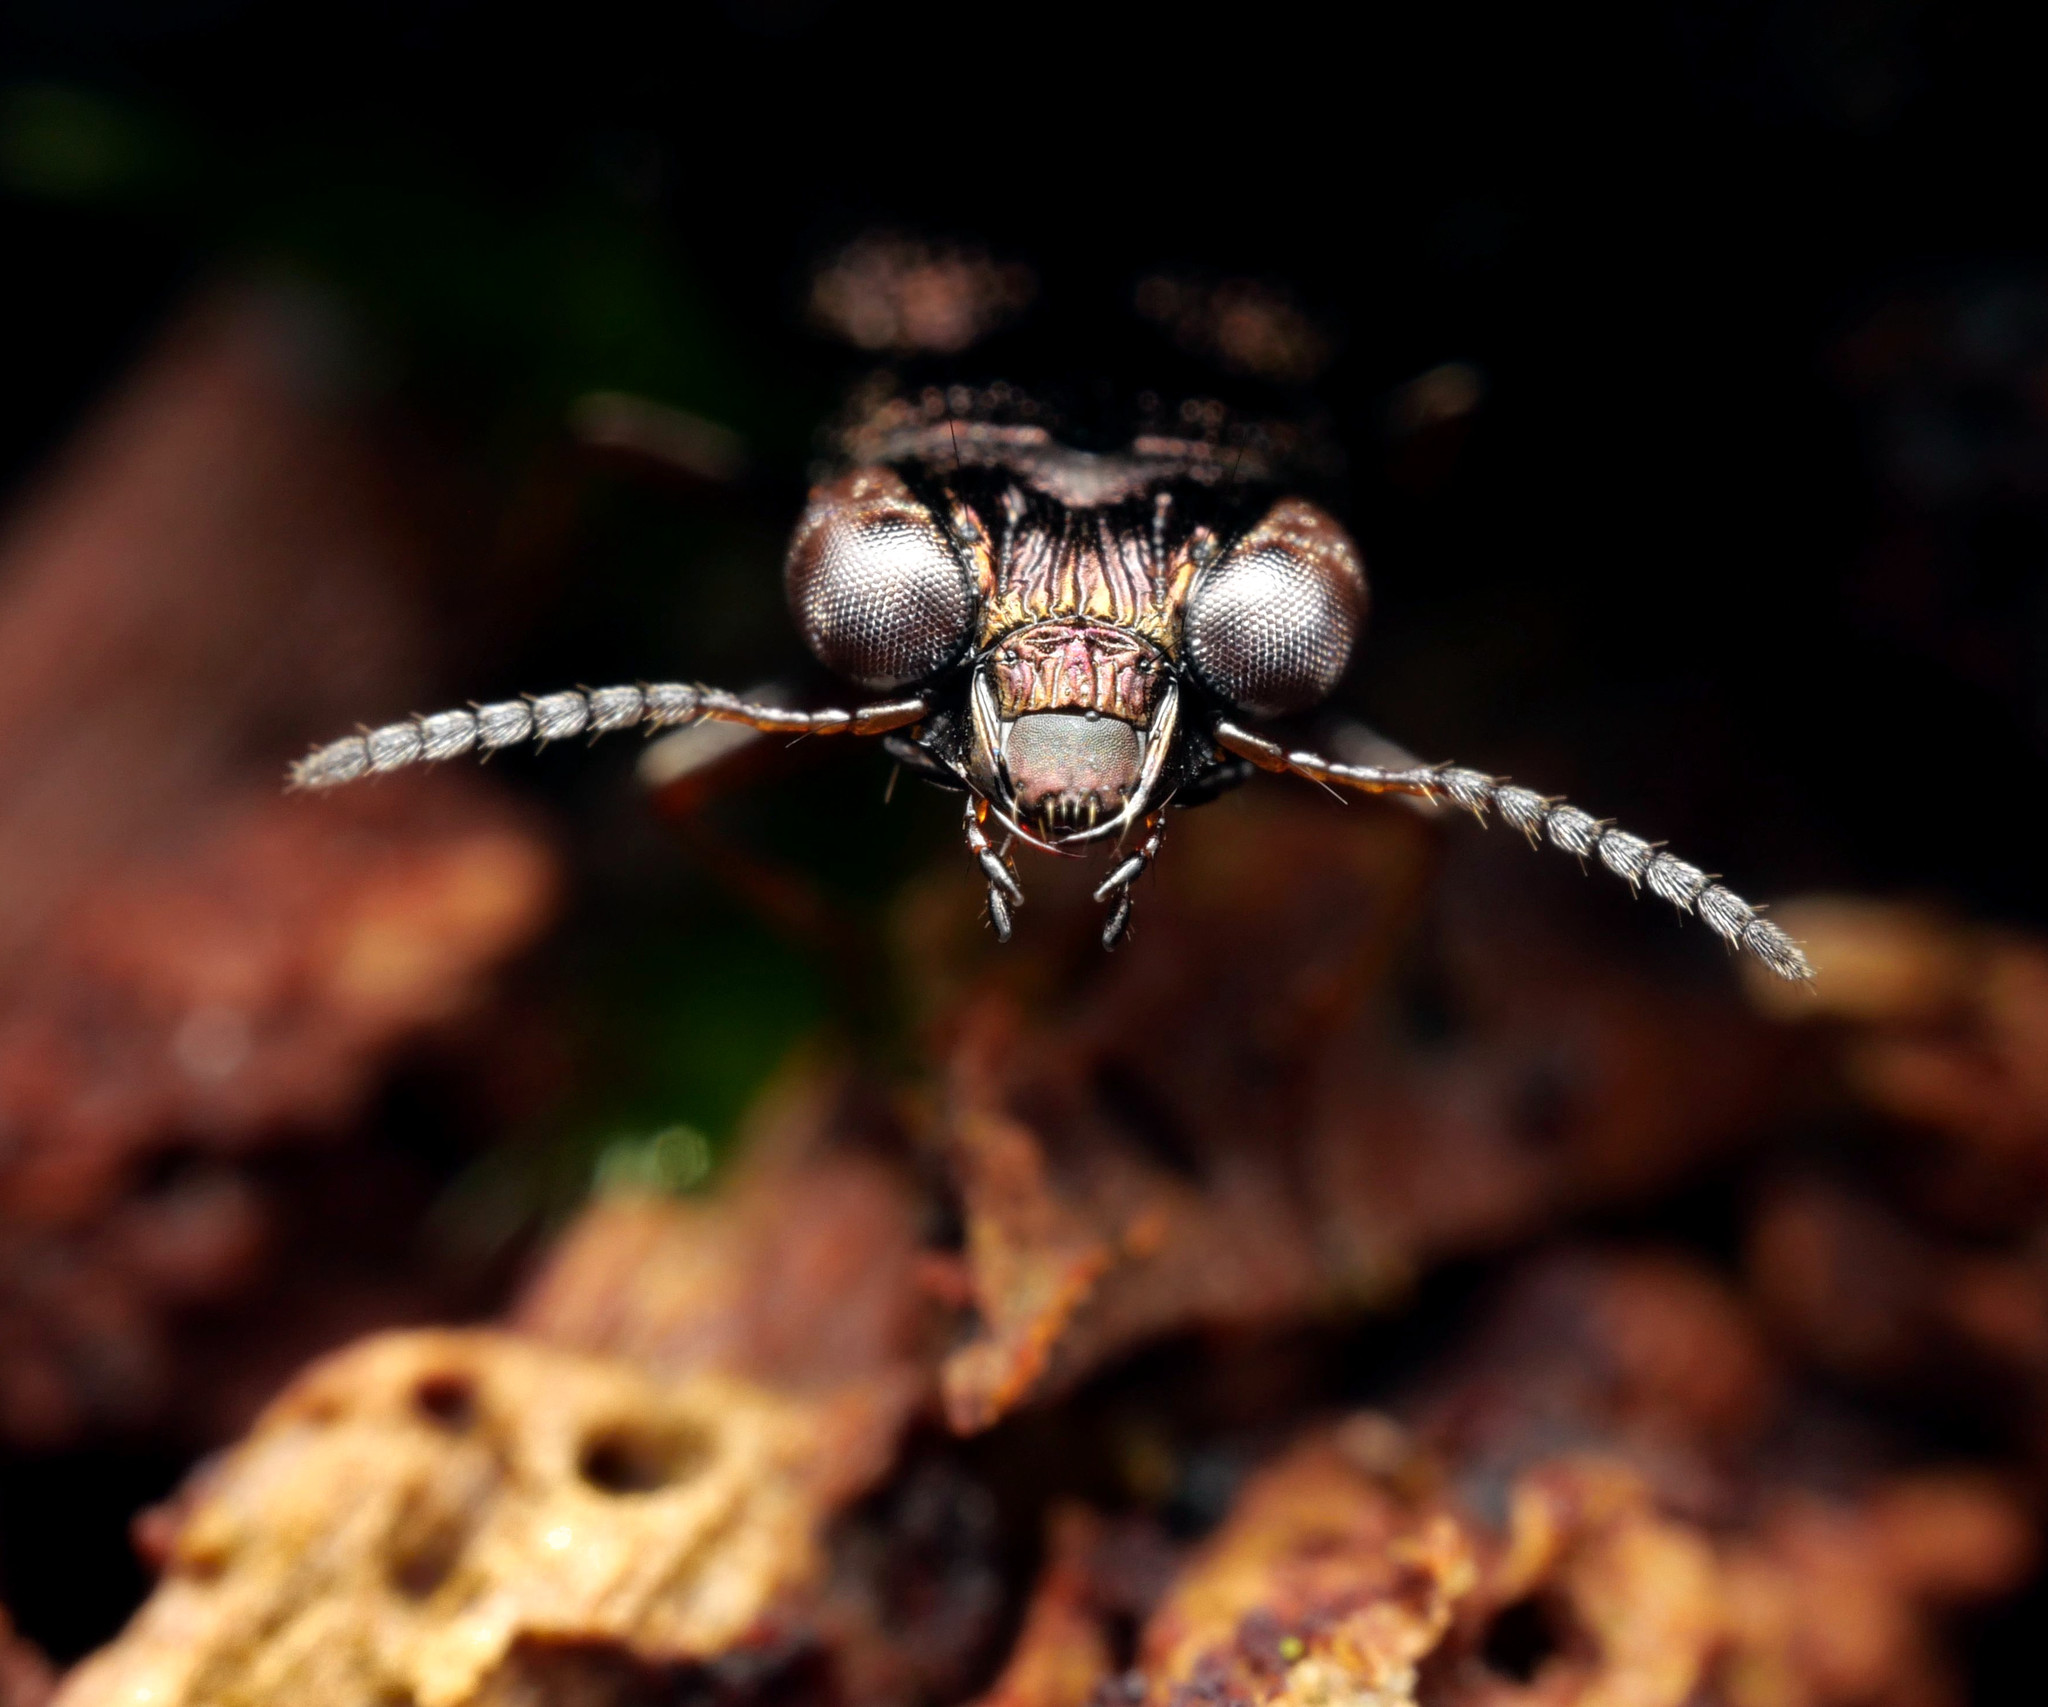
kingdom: Animalia
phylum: Arthropoda
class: Insecta
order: Coleoptera
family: Carabidae
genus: Notiophilus
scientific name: Notiophilus rufipes
